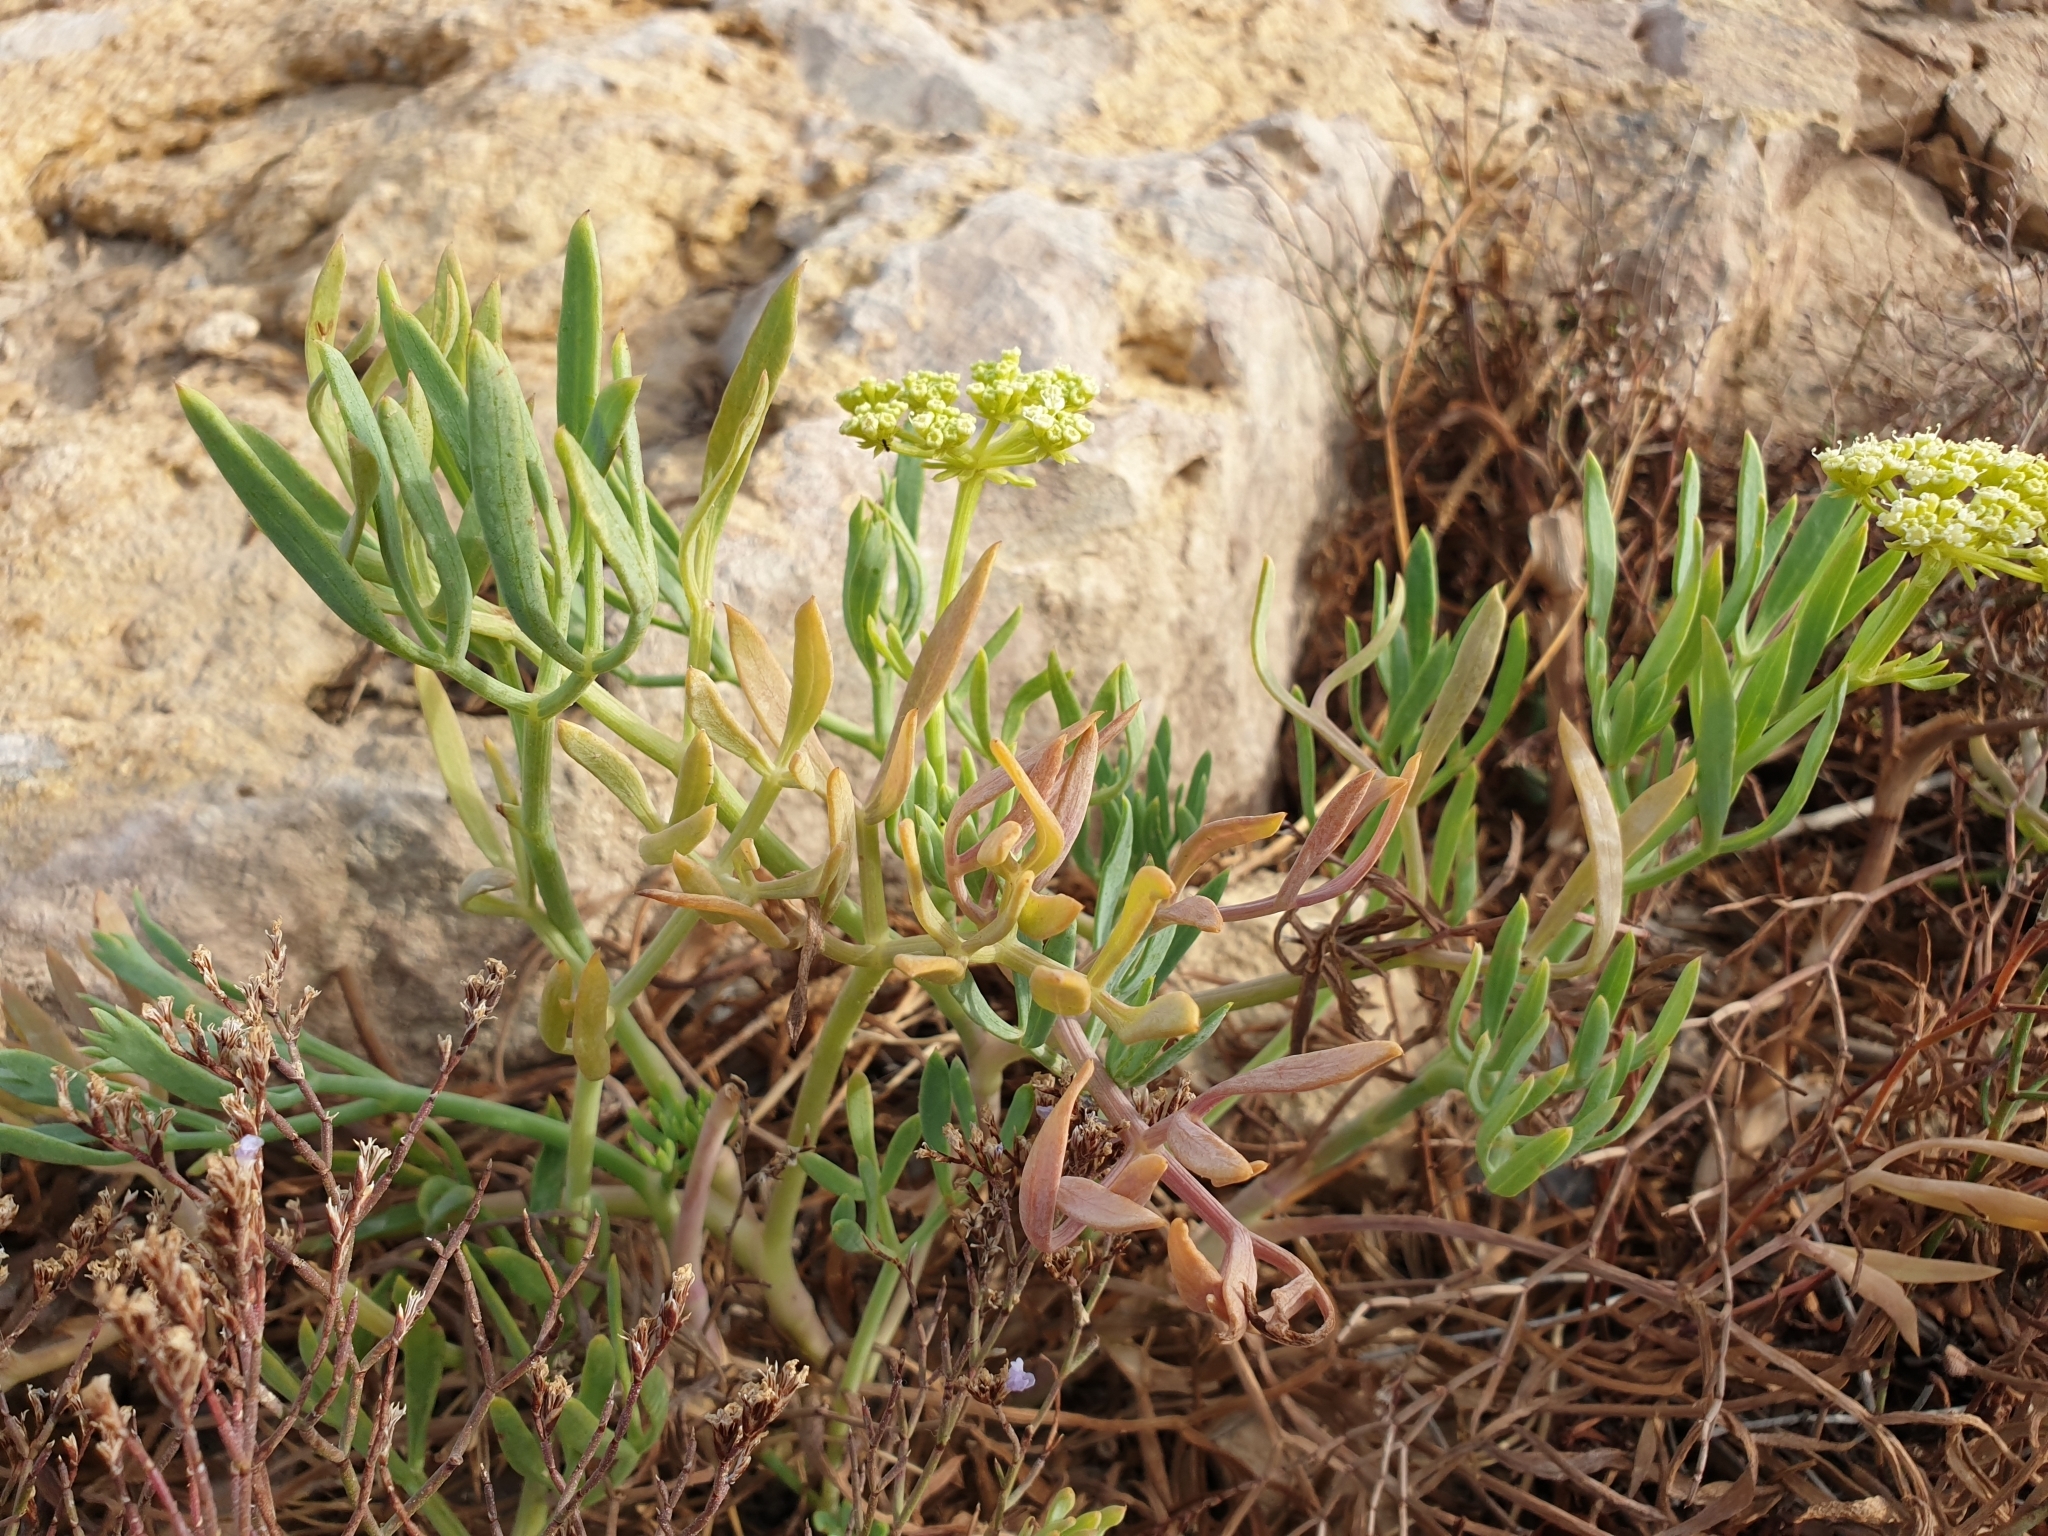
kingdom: Plantae
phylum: Tracheophyta
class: Magnoliopsida
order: Apiales
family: Apiaceae
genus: Crithmum
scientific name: Crithmum maritimum
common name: Rock samphire
